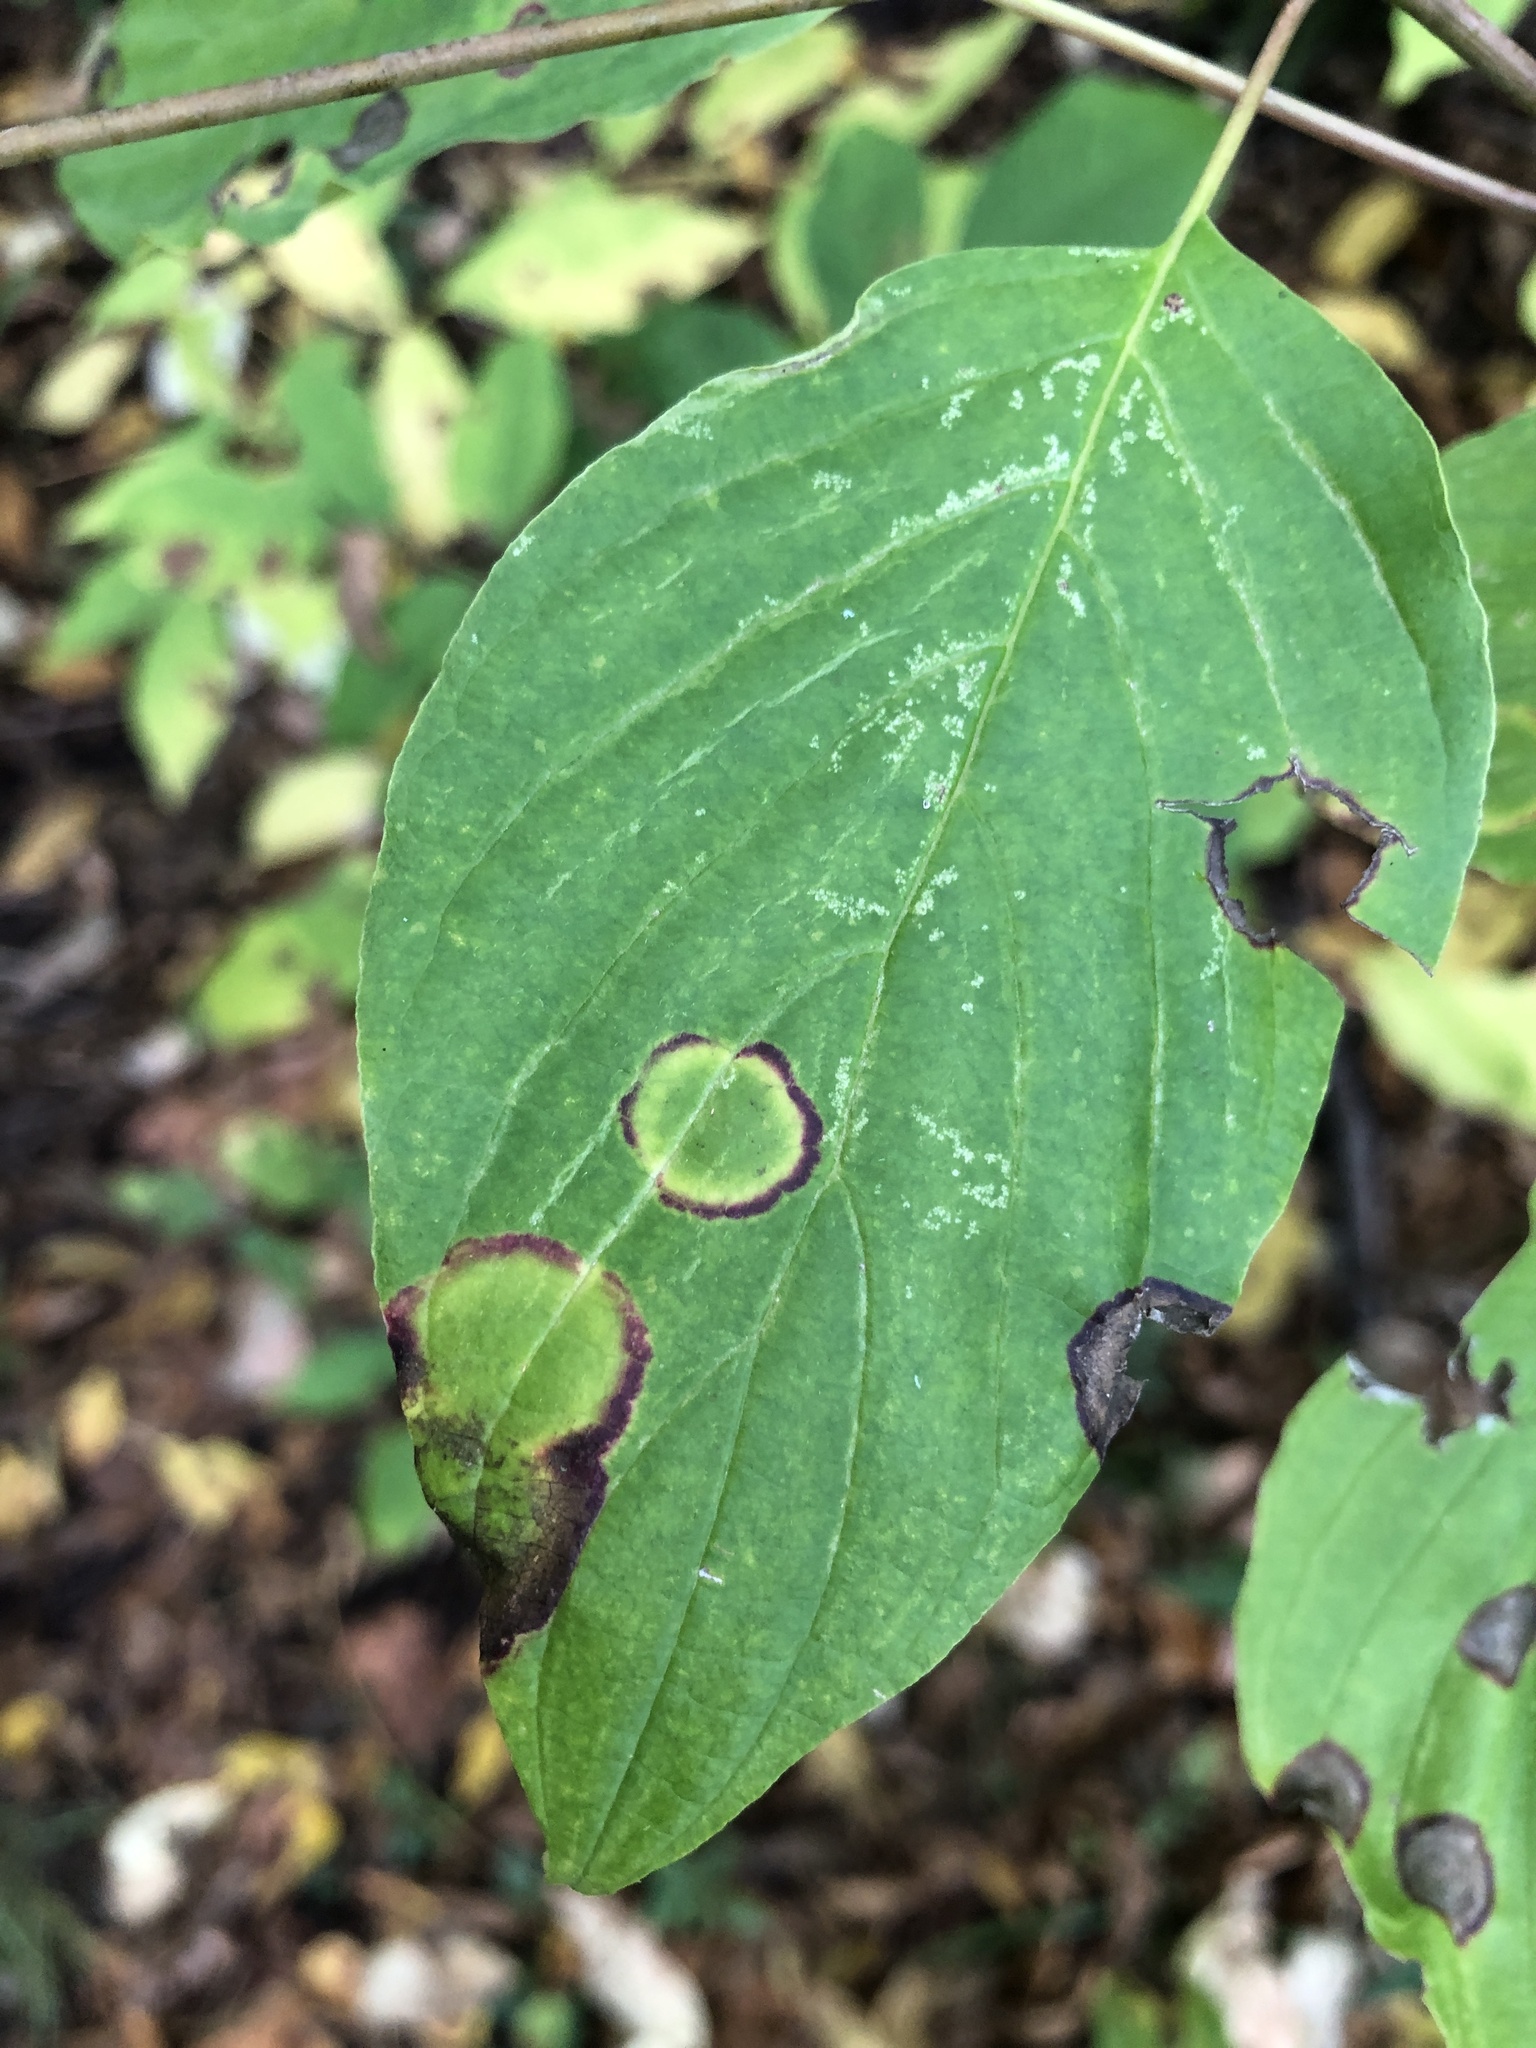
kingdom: Animalia
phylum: Arthropoda
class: Insecta
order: Diptera
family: Cecidomyiidae
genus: Parallelodiplosis
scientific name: Parallelodiplosis subtruncata
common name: Dogwood eyespot gall midge
